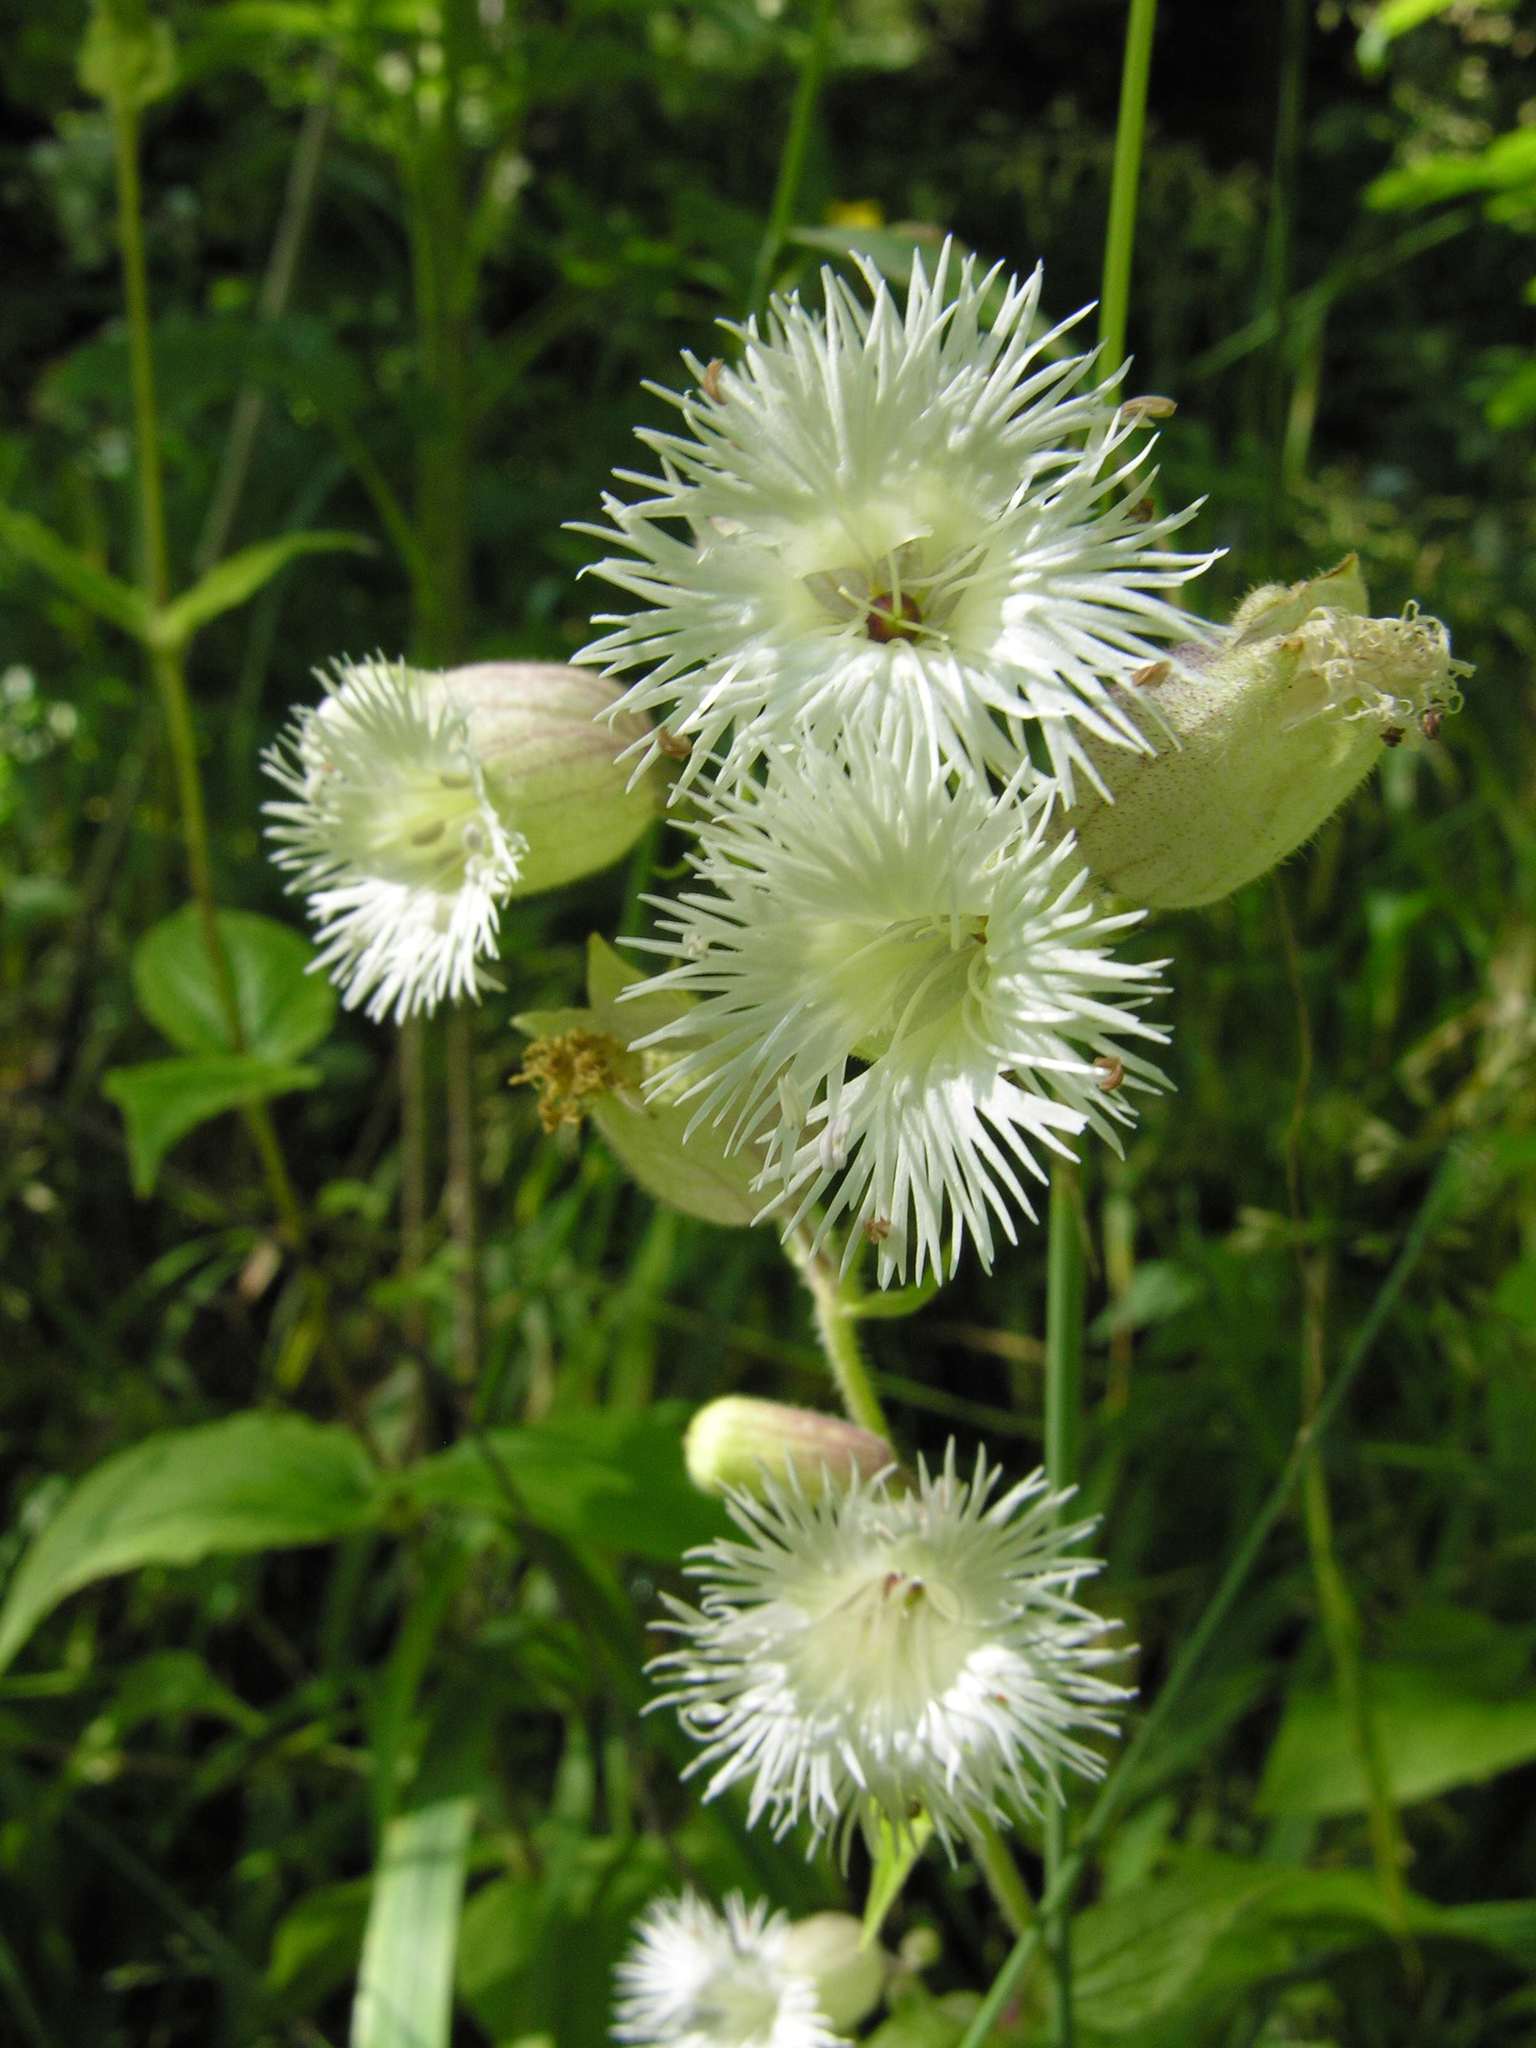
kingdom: Plantae
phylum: Tracheophyta
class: Magnoliopsida
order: Caryophyllales
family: Caryophyllaceae
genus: Silene
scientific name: Silene
